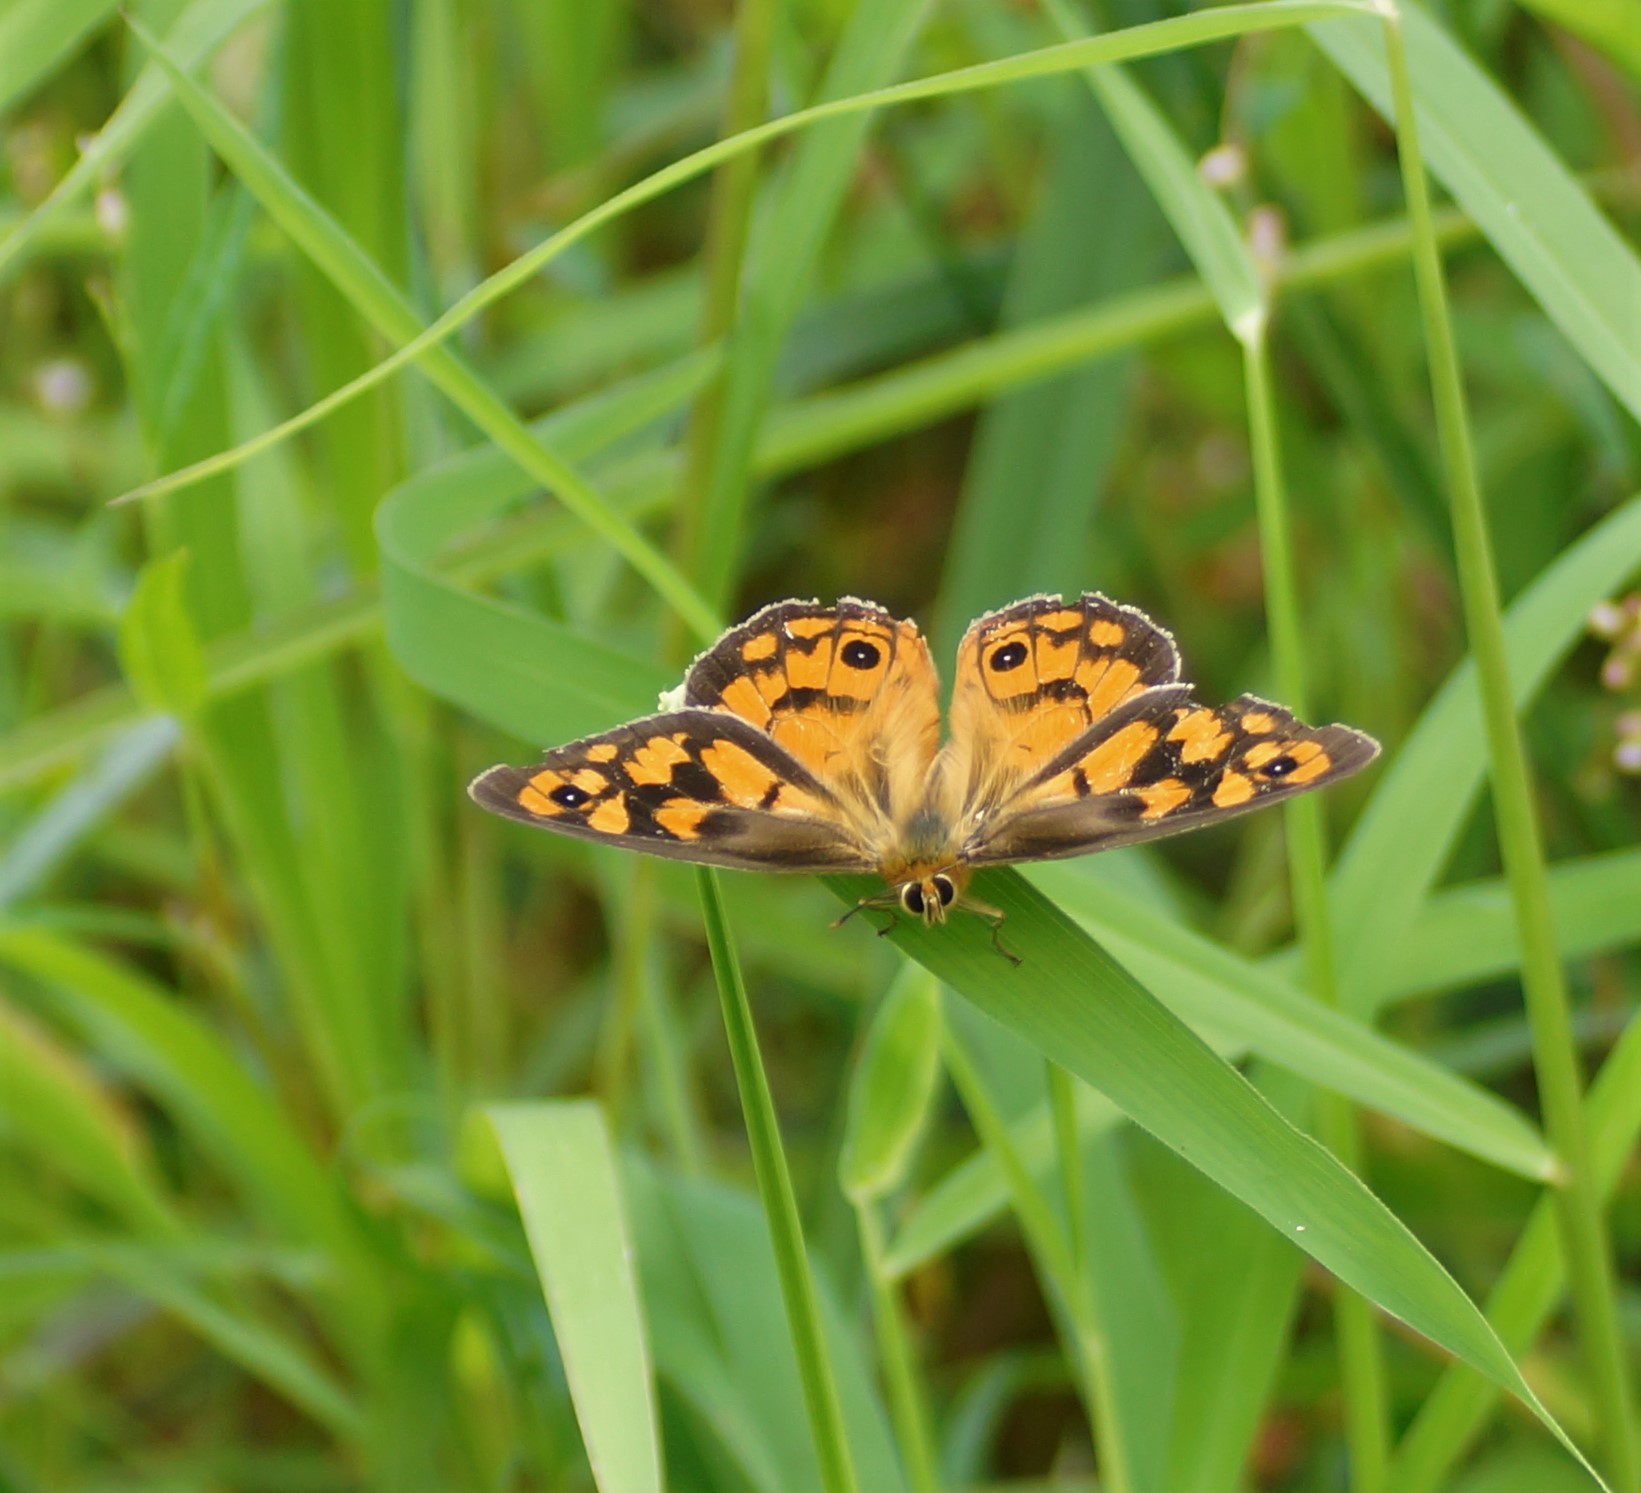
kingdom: Animalia
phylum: Arthropoda
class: Insecta
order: Lepidoptera
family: Nymphalidae
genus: Heteronympha
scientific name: Heteronympha penelope
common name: Shouldered brown
